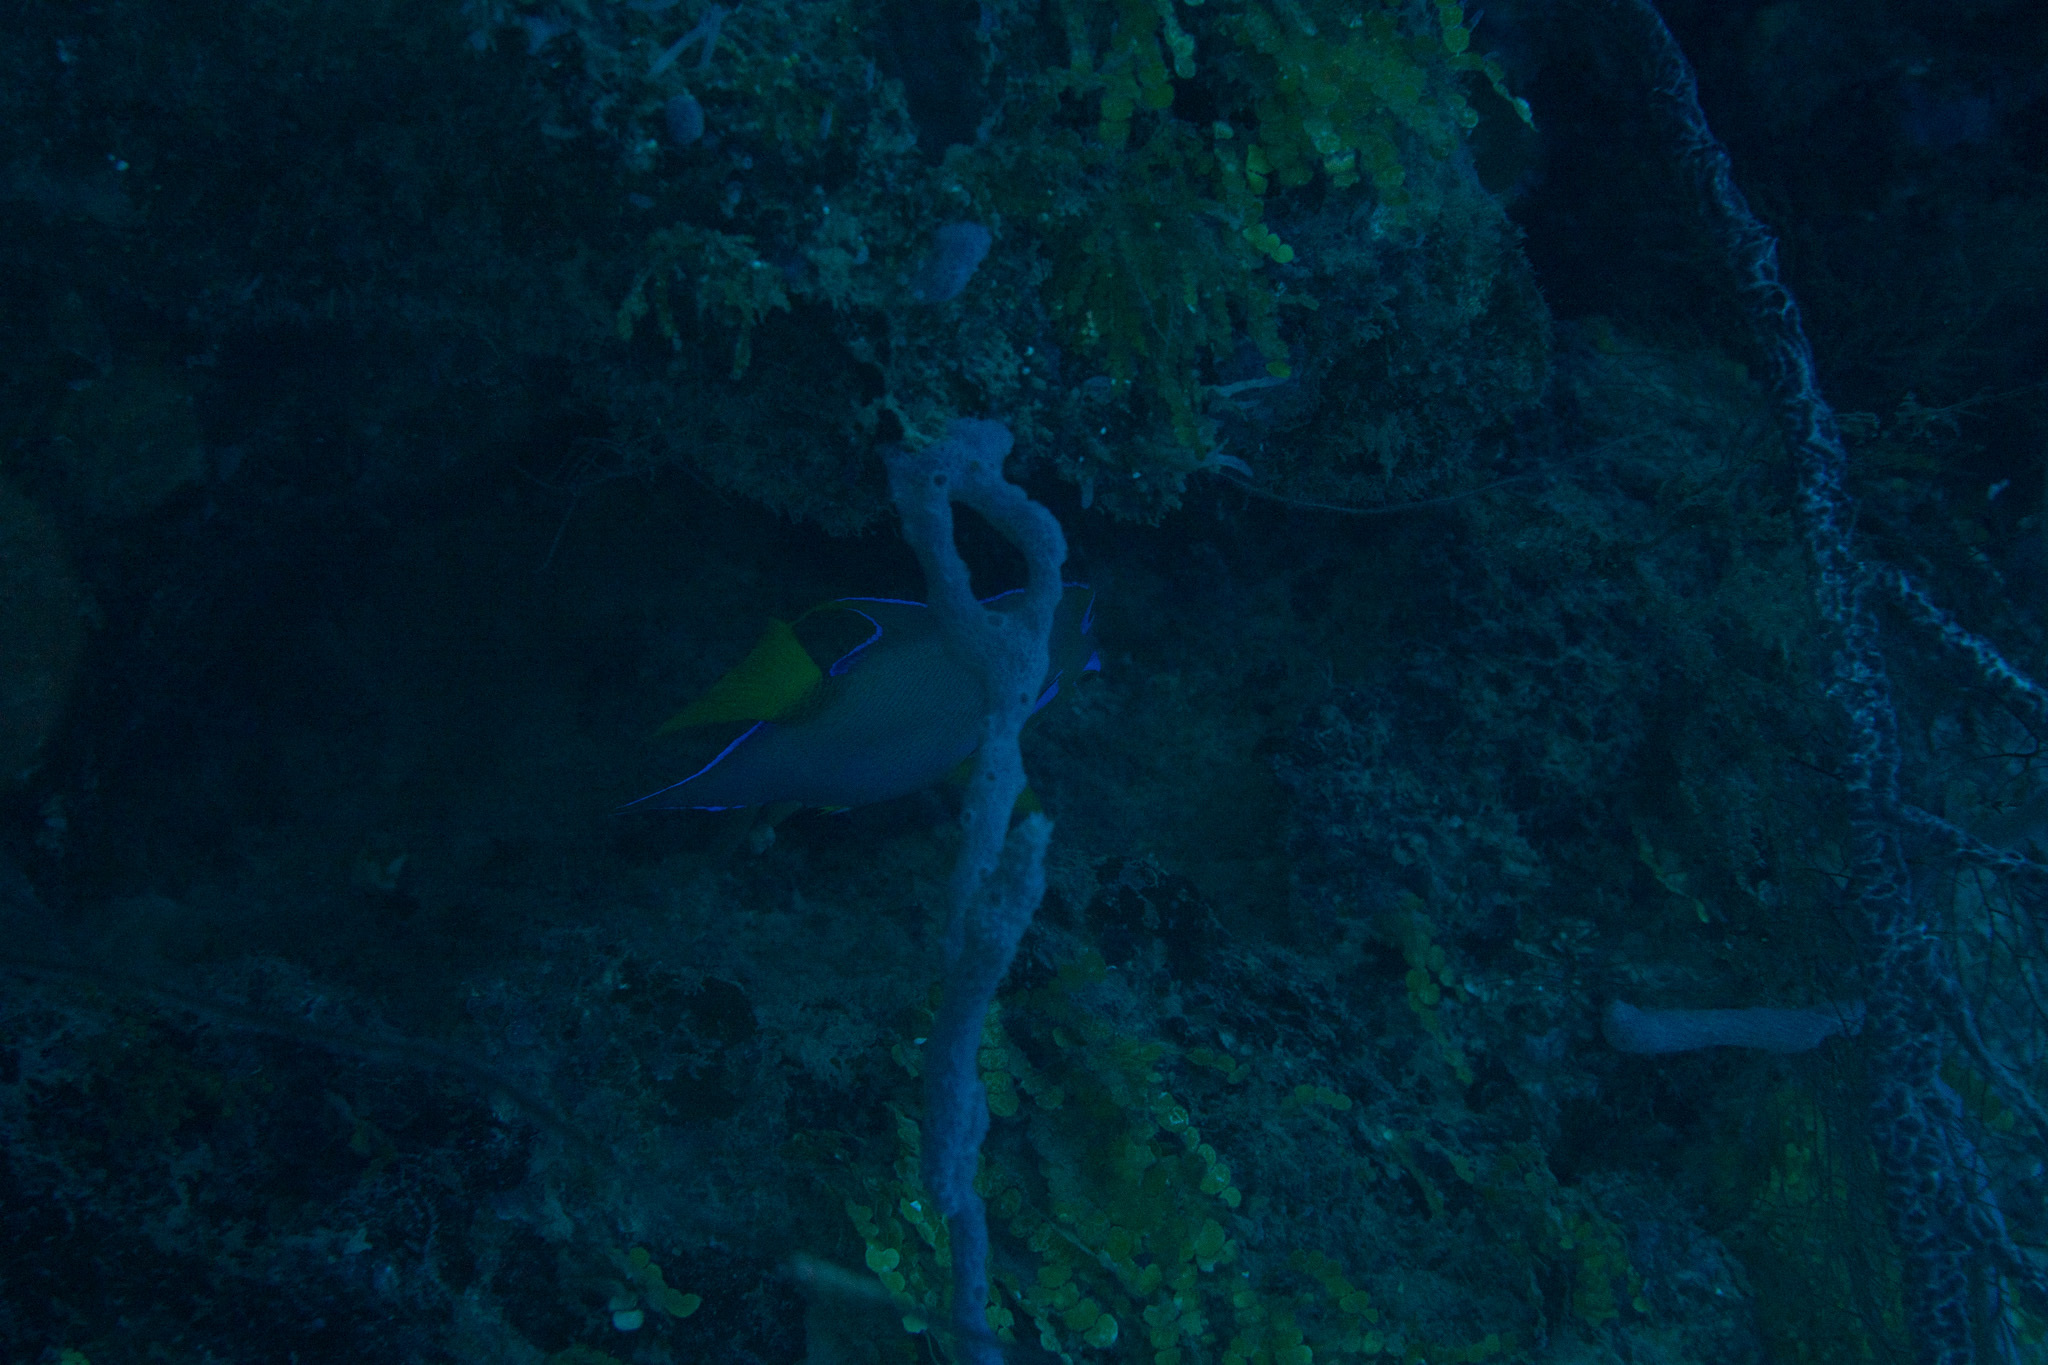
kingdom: Animalia
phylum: Chordata
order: Perciformes
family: Pomacanthidae
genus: Holacanthus
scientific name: Holacanthus ciliaris
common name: Queen angelfish
